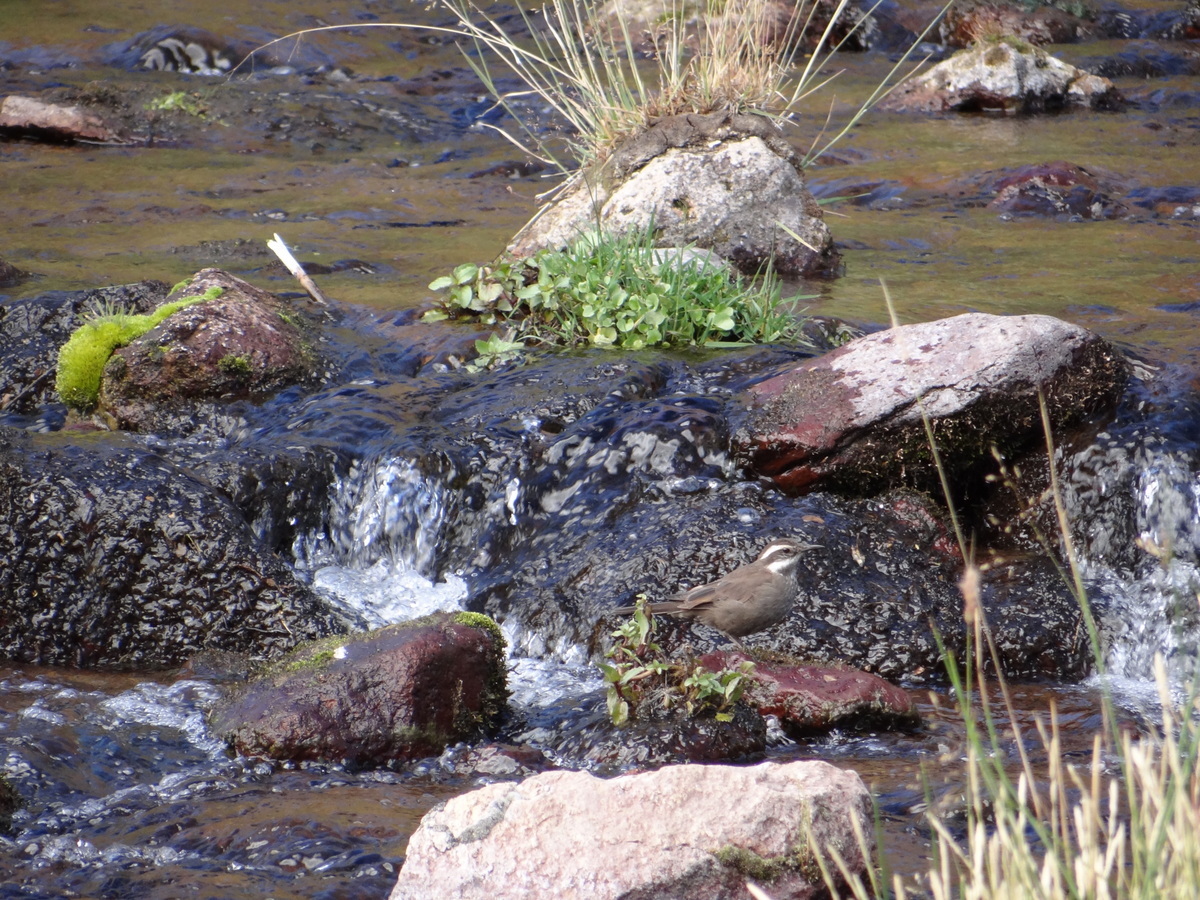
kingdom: Animalia
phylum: Chordata
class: Aves
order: Passeriformes
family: Furnariidae
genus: Cinclodes
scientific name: Cinclodes fuscus
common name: Buff-winged cinclodes
